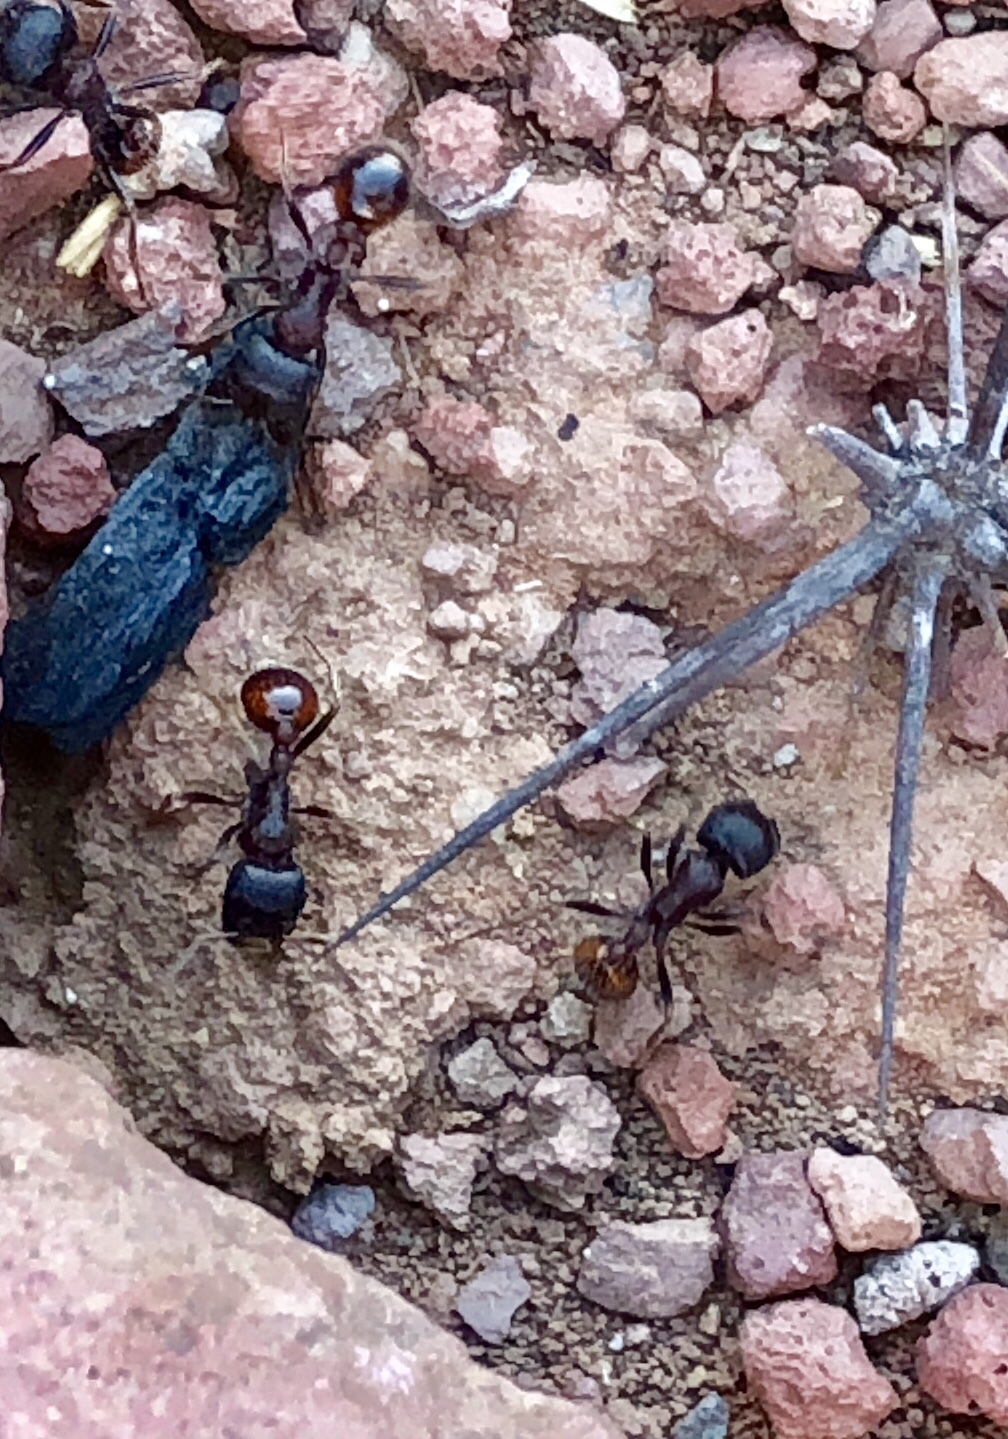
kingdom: Animalia
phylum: Arthropoda
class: Insecta
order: Hymenoptera
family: Formicidae
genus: Pogonomyrmex
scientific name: Pogonomyrmex rugosus
